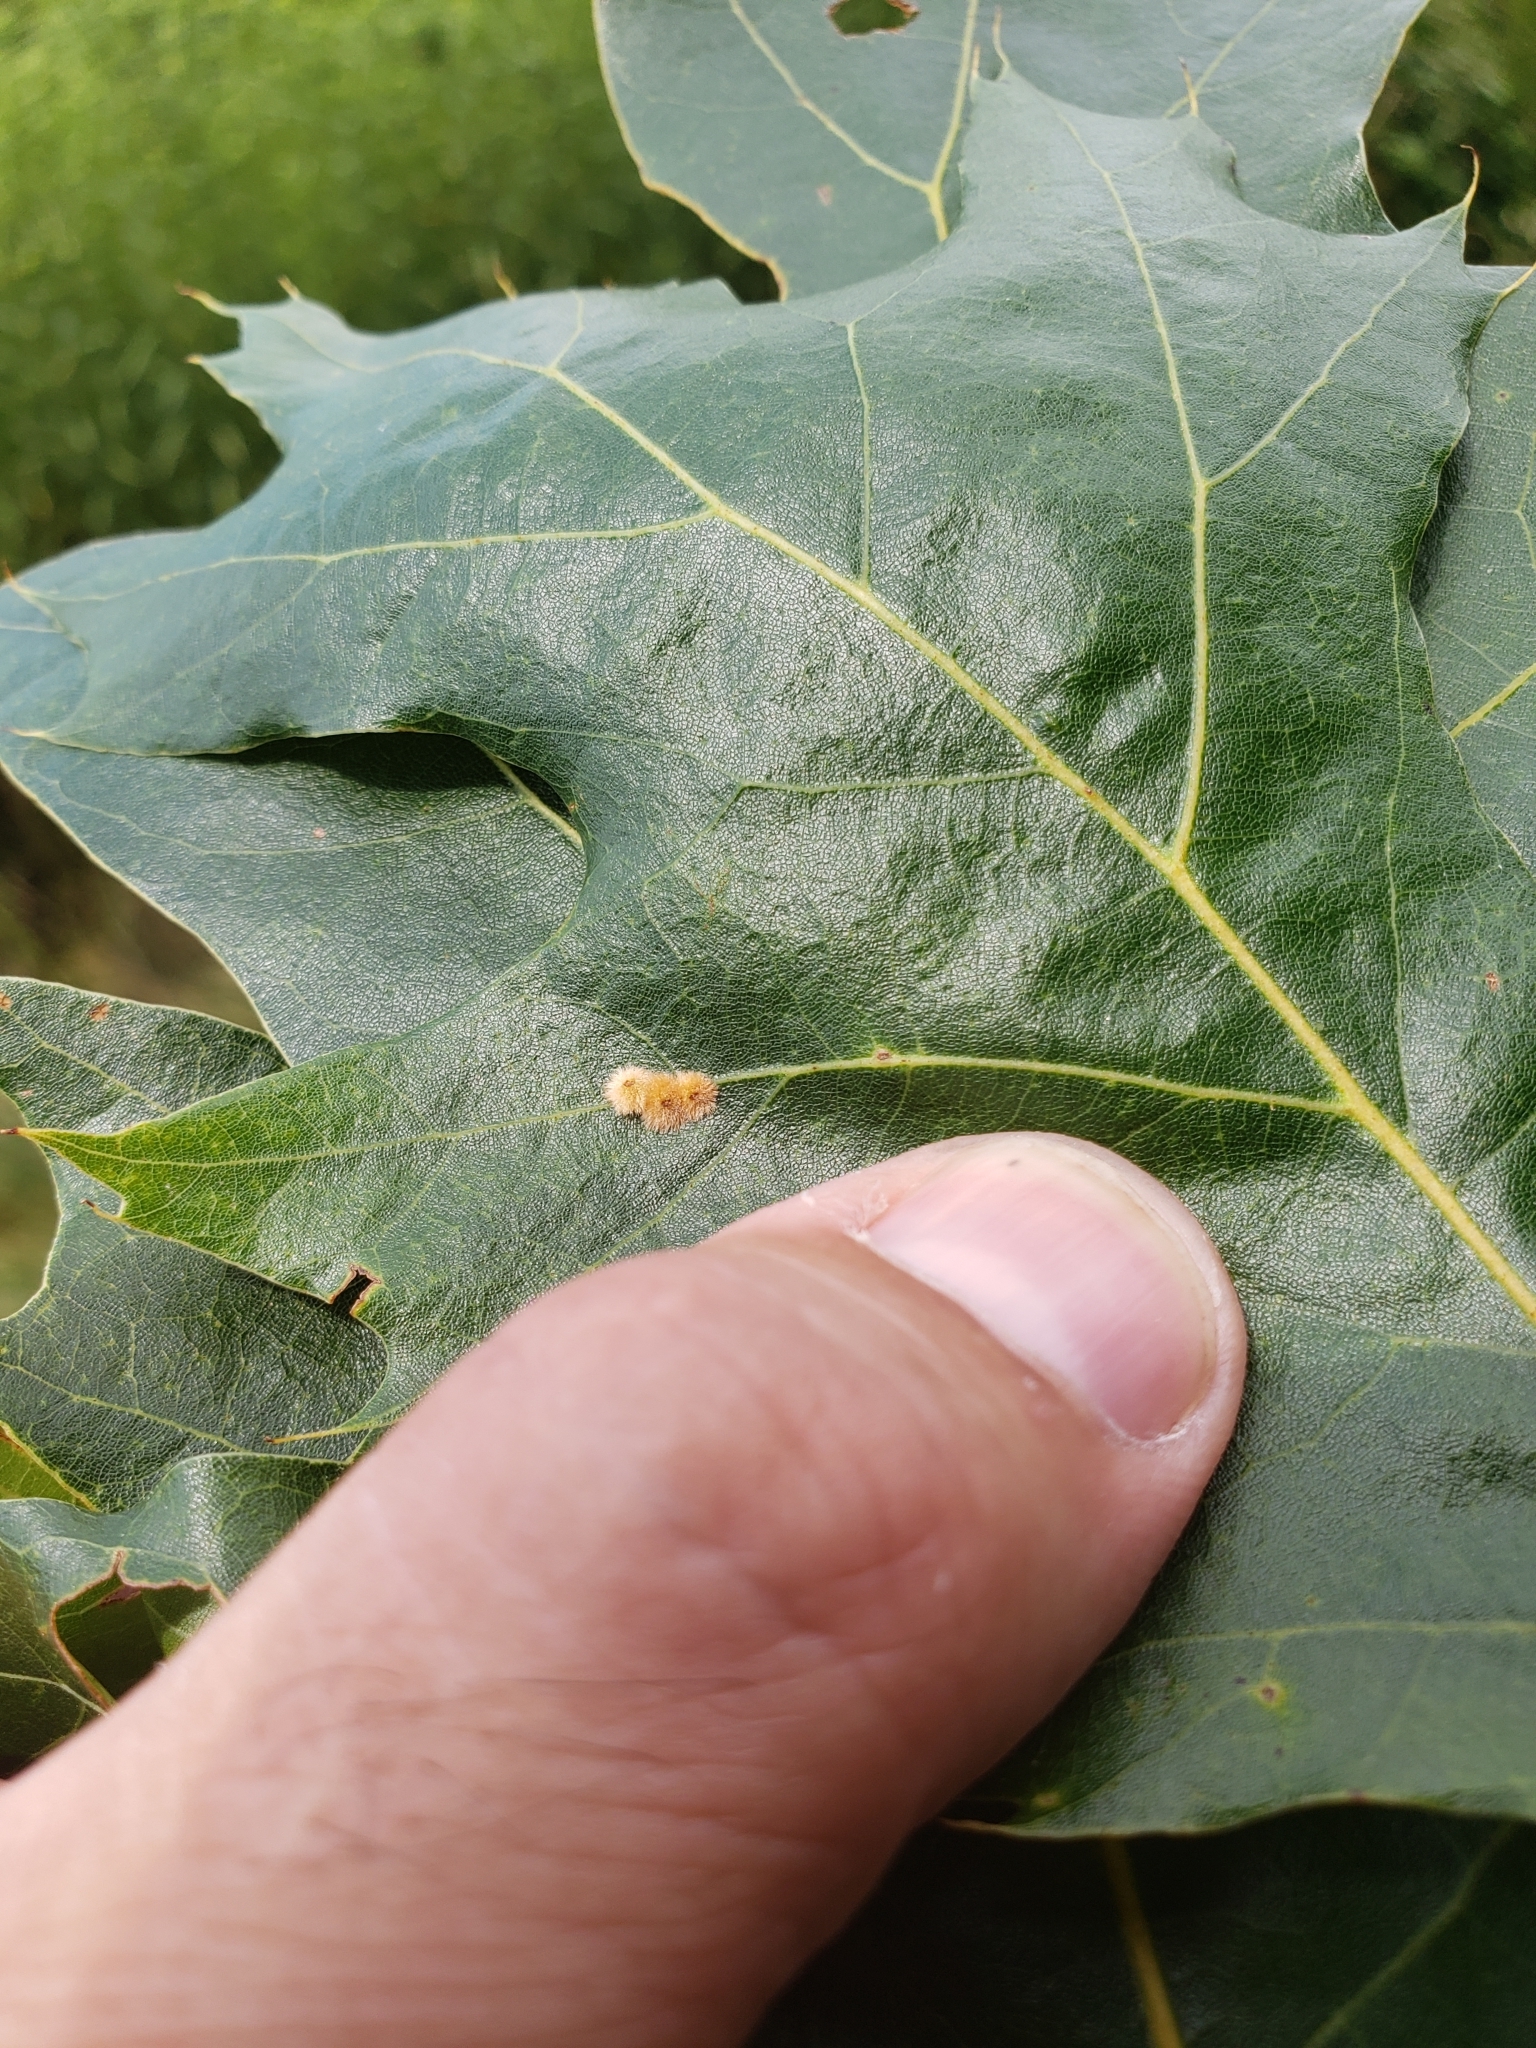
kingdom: Animalia
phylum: Arthropoda
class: Insecta
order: Hymenoptera
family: Cynipidae
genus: Callirhytis
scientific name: Callirhytis
